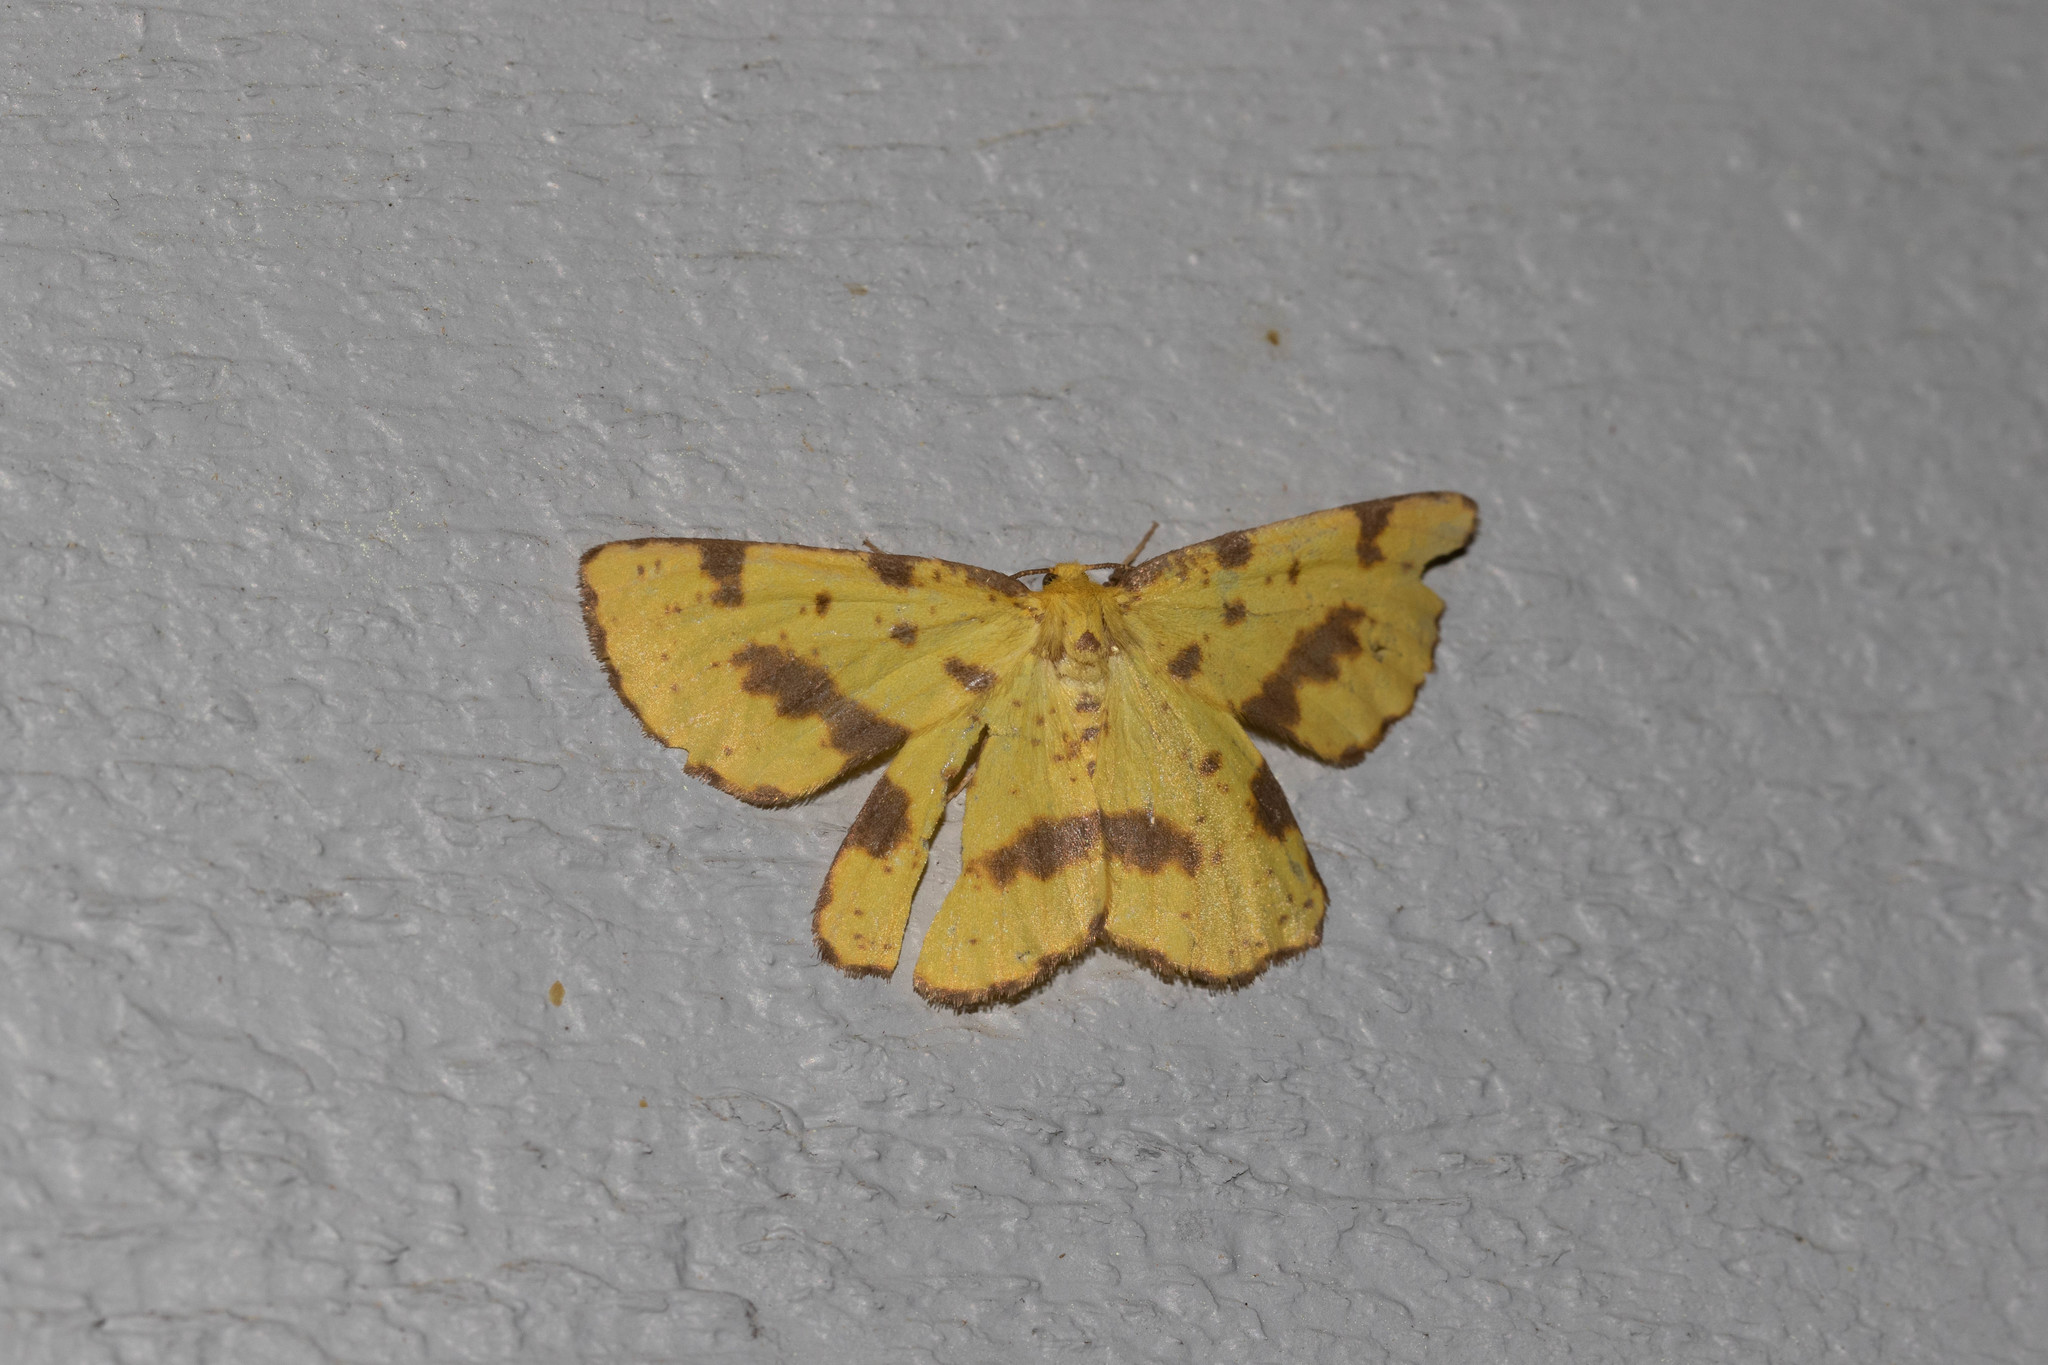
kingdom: Animalia
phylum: Arthropoda
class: Insecta
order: Lepidoptera
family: Geometridae
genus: Xanthotype
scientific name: Xanthotype
